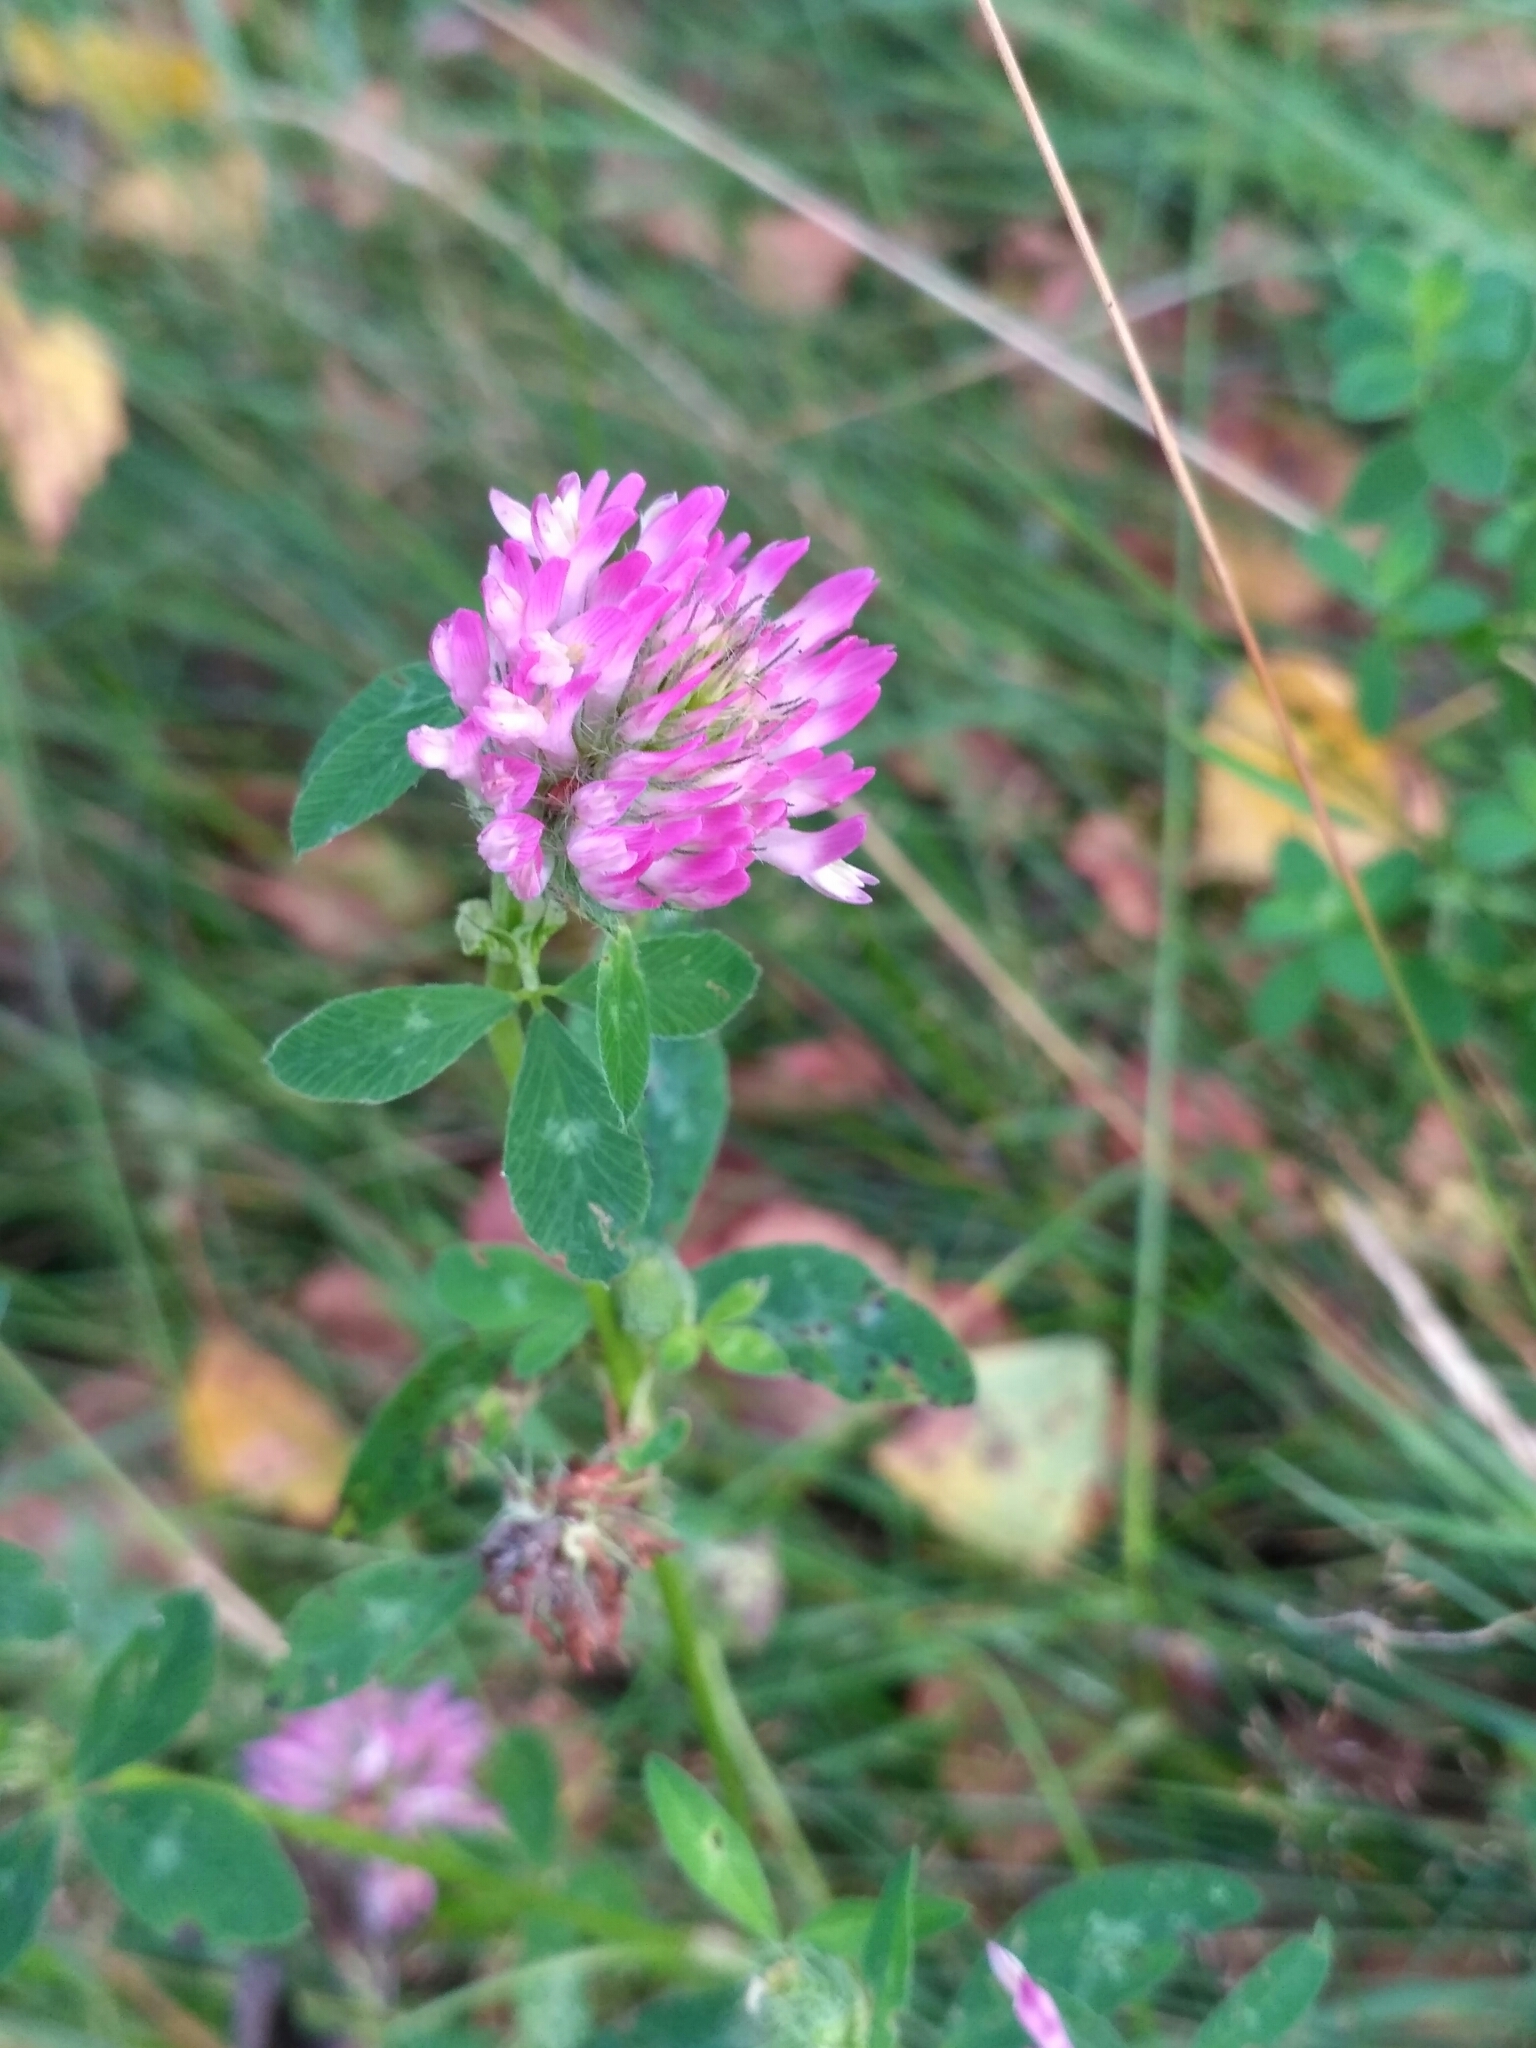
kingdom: Plantae
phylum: Tracheophyta
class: Magnoliopsida
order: Fabales
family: Fabaceae
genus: Trifolium
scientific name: Trifolium pratense
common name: Red clover
